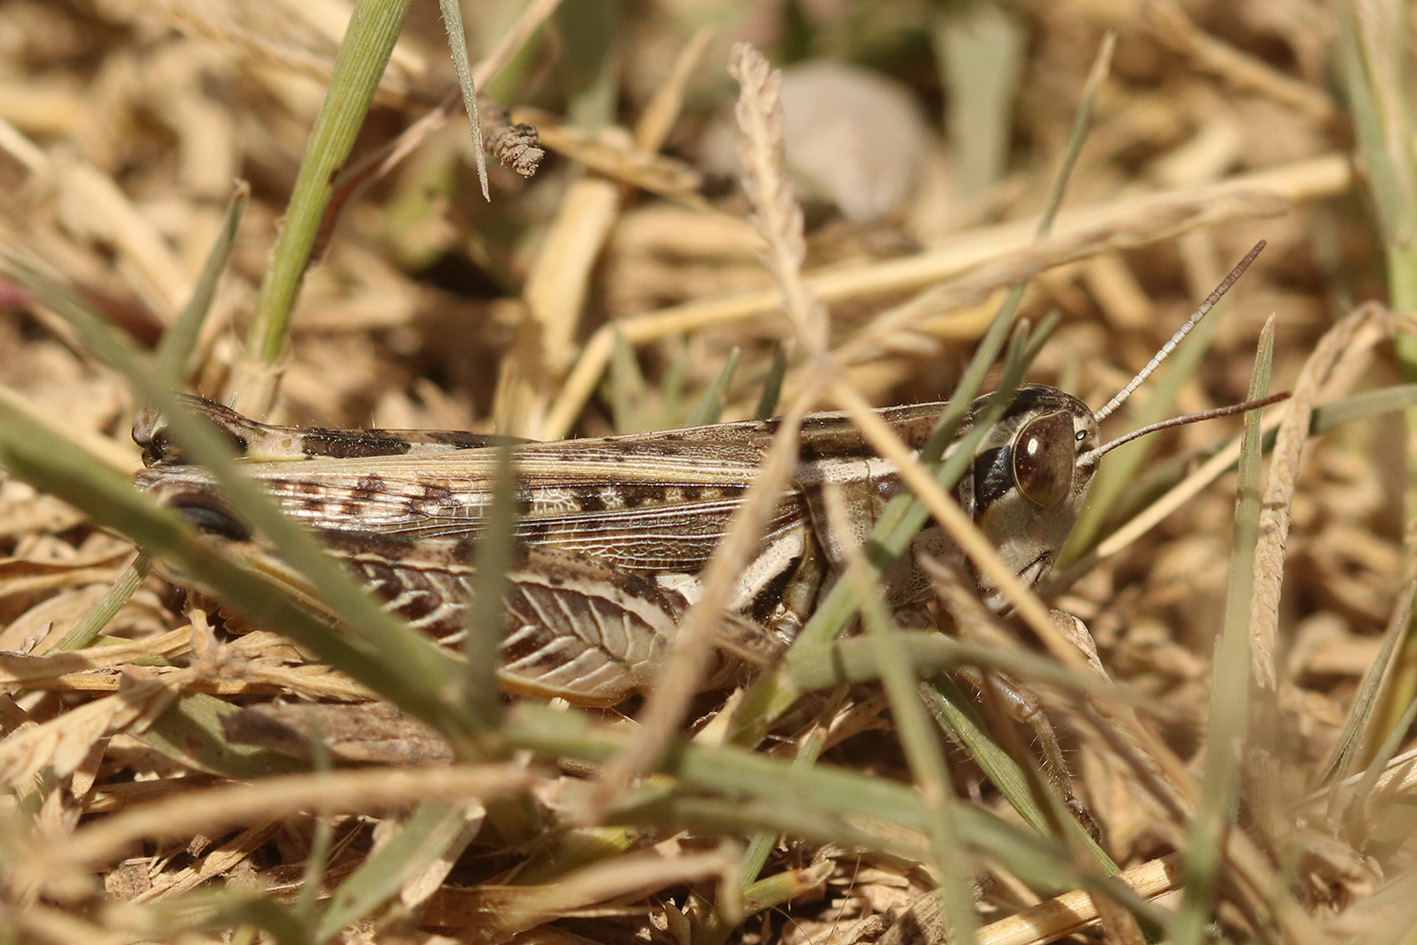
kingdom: Animalia
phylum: Arthropoda
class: Insecta
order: Orthoptera
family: Acrididae
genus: Dichroplus
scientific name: Dichroplus pratensis
